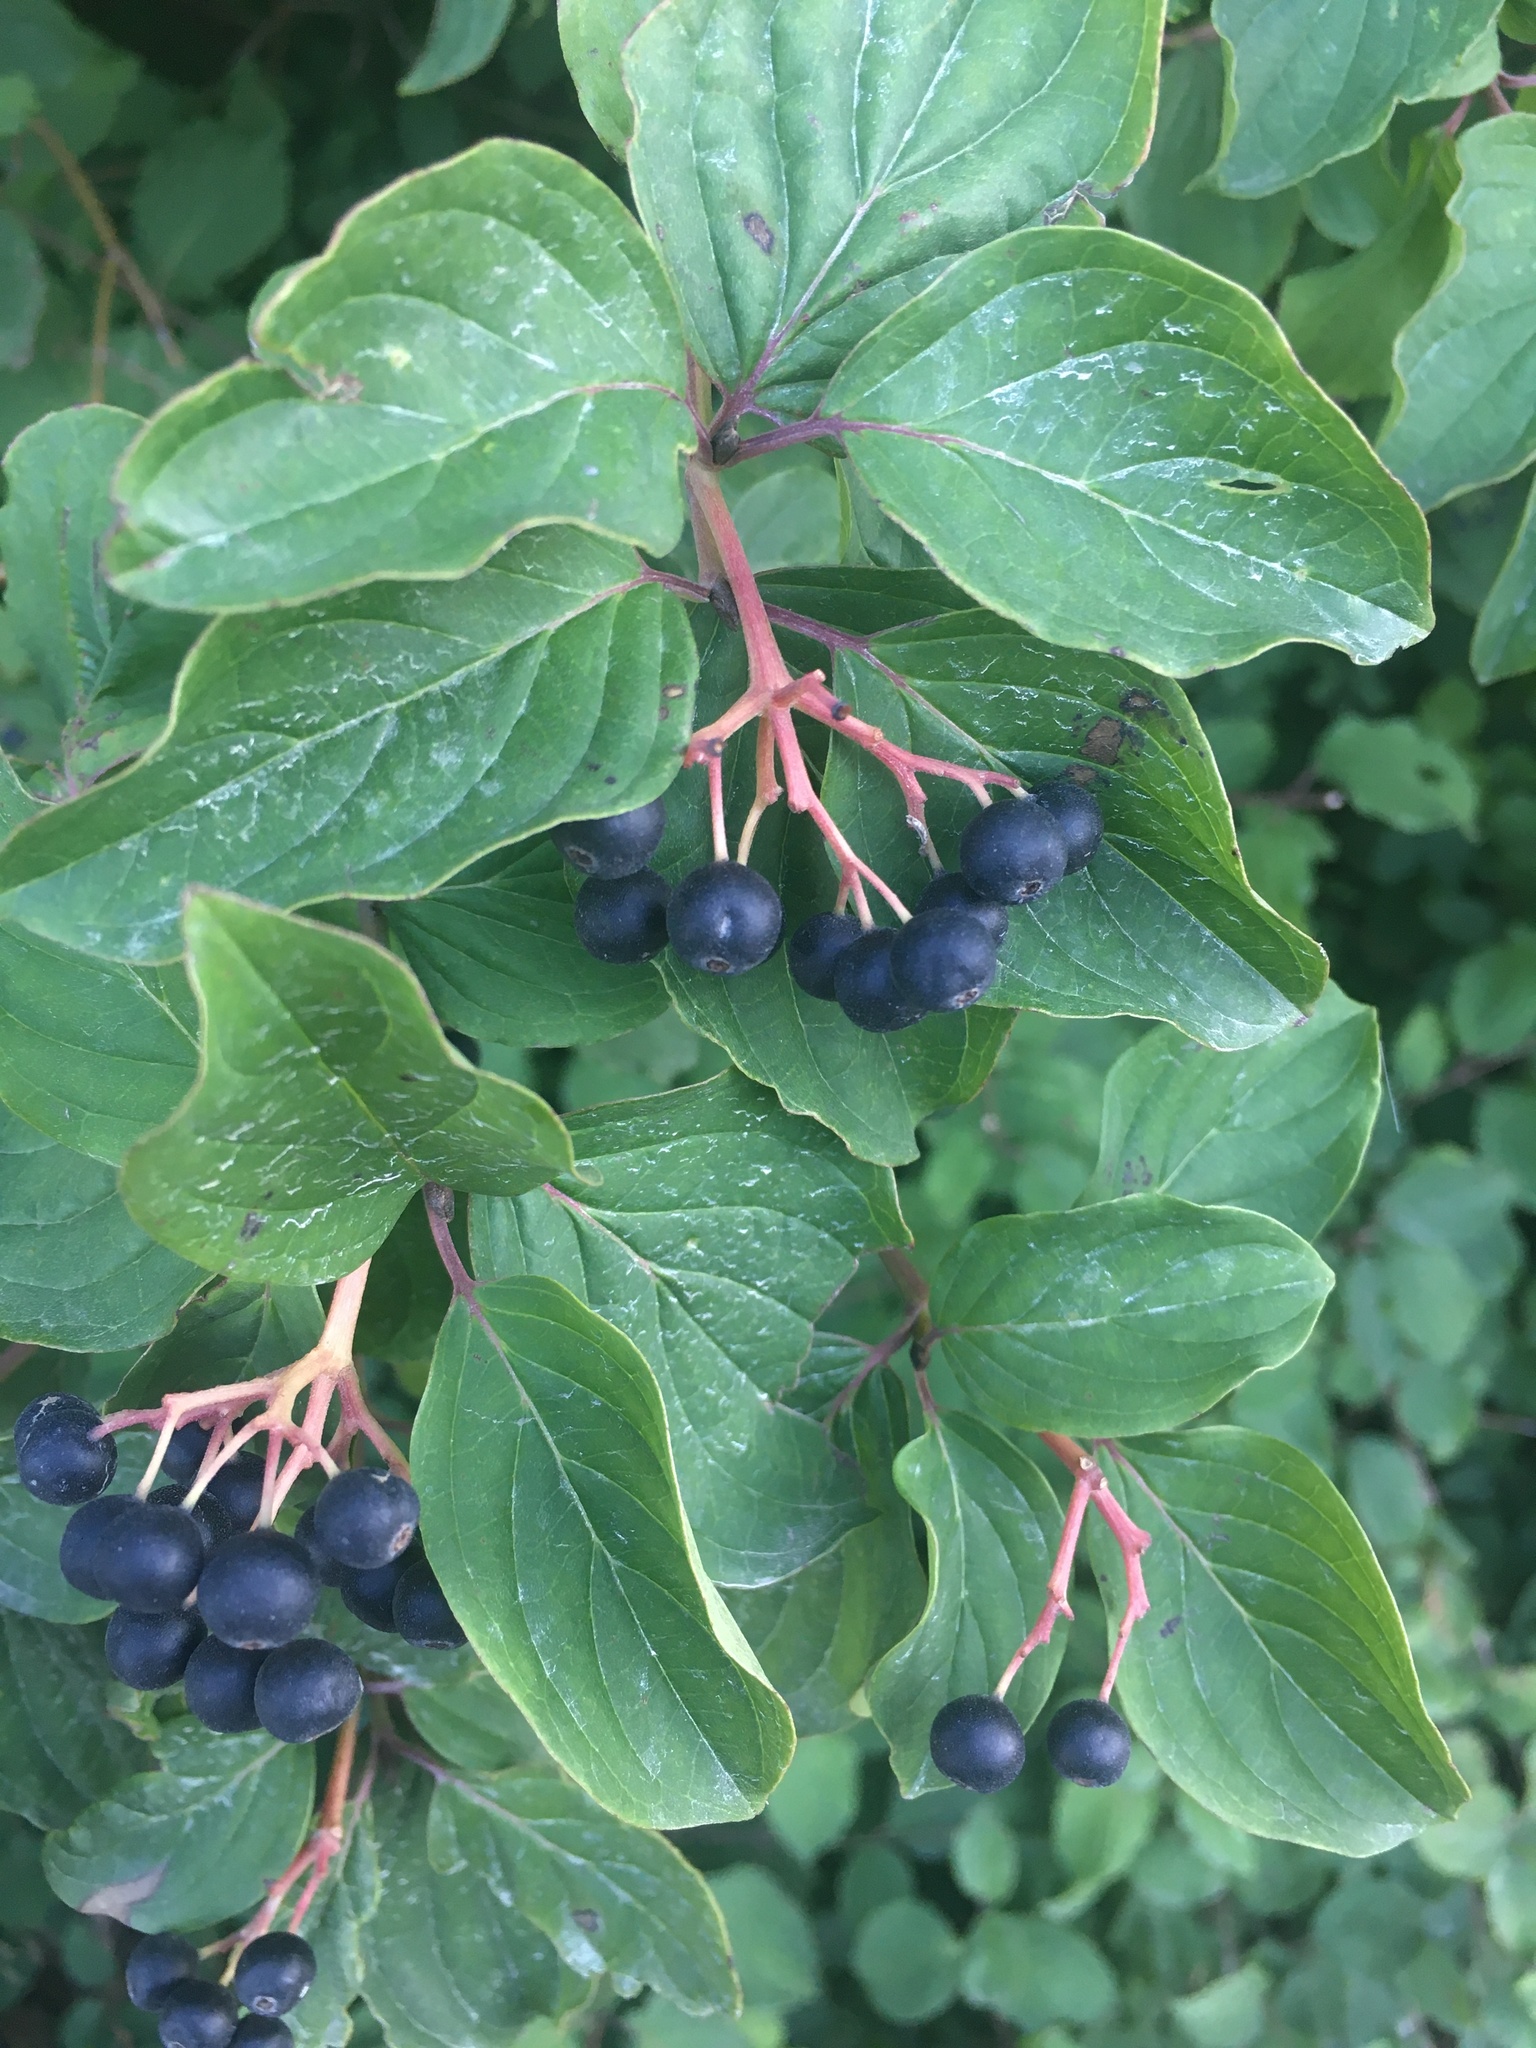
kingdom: Plantae
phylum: Tracheophyta
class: Magnoliopsida
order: Cornales
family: Cornaceae
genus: Cornus
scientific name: Cornus sanguinea
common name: Dogwood
